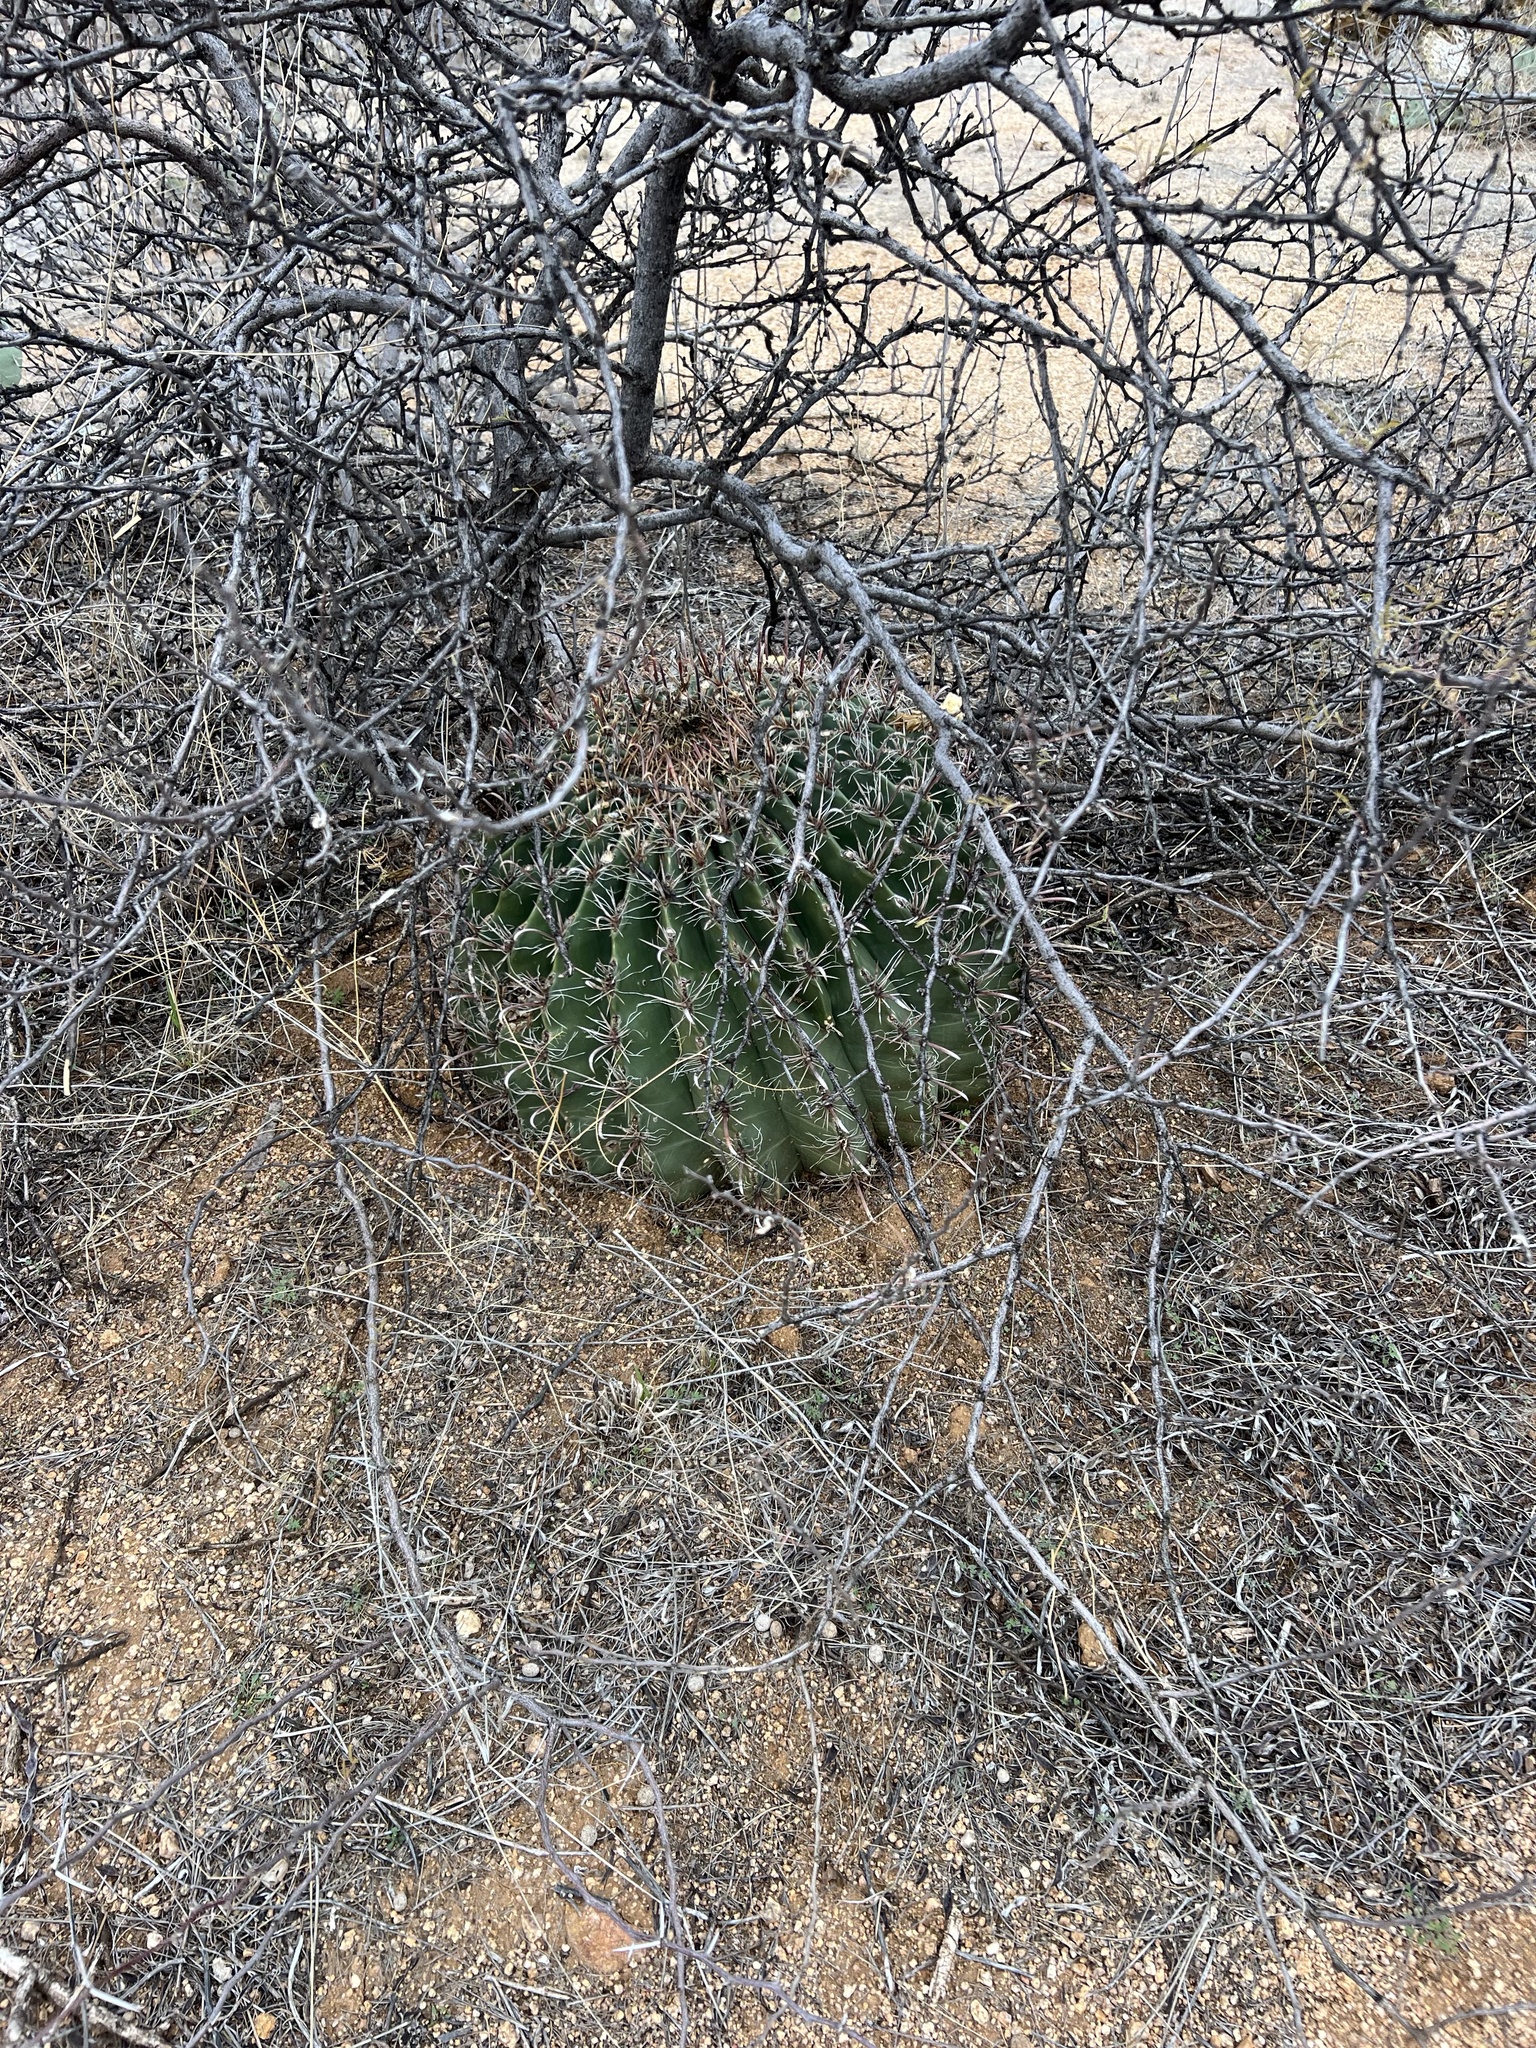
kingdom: Plantae
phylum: Tracheophyta
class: Magnoliopsida
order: Caryophyllales
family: Cactaceae
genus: Ferocactus
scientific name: Ferocactus wislizeni
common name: Candy barrel cactus
